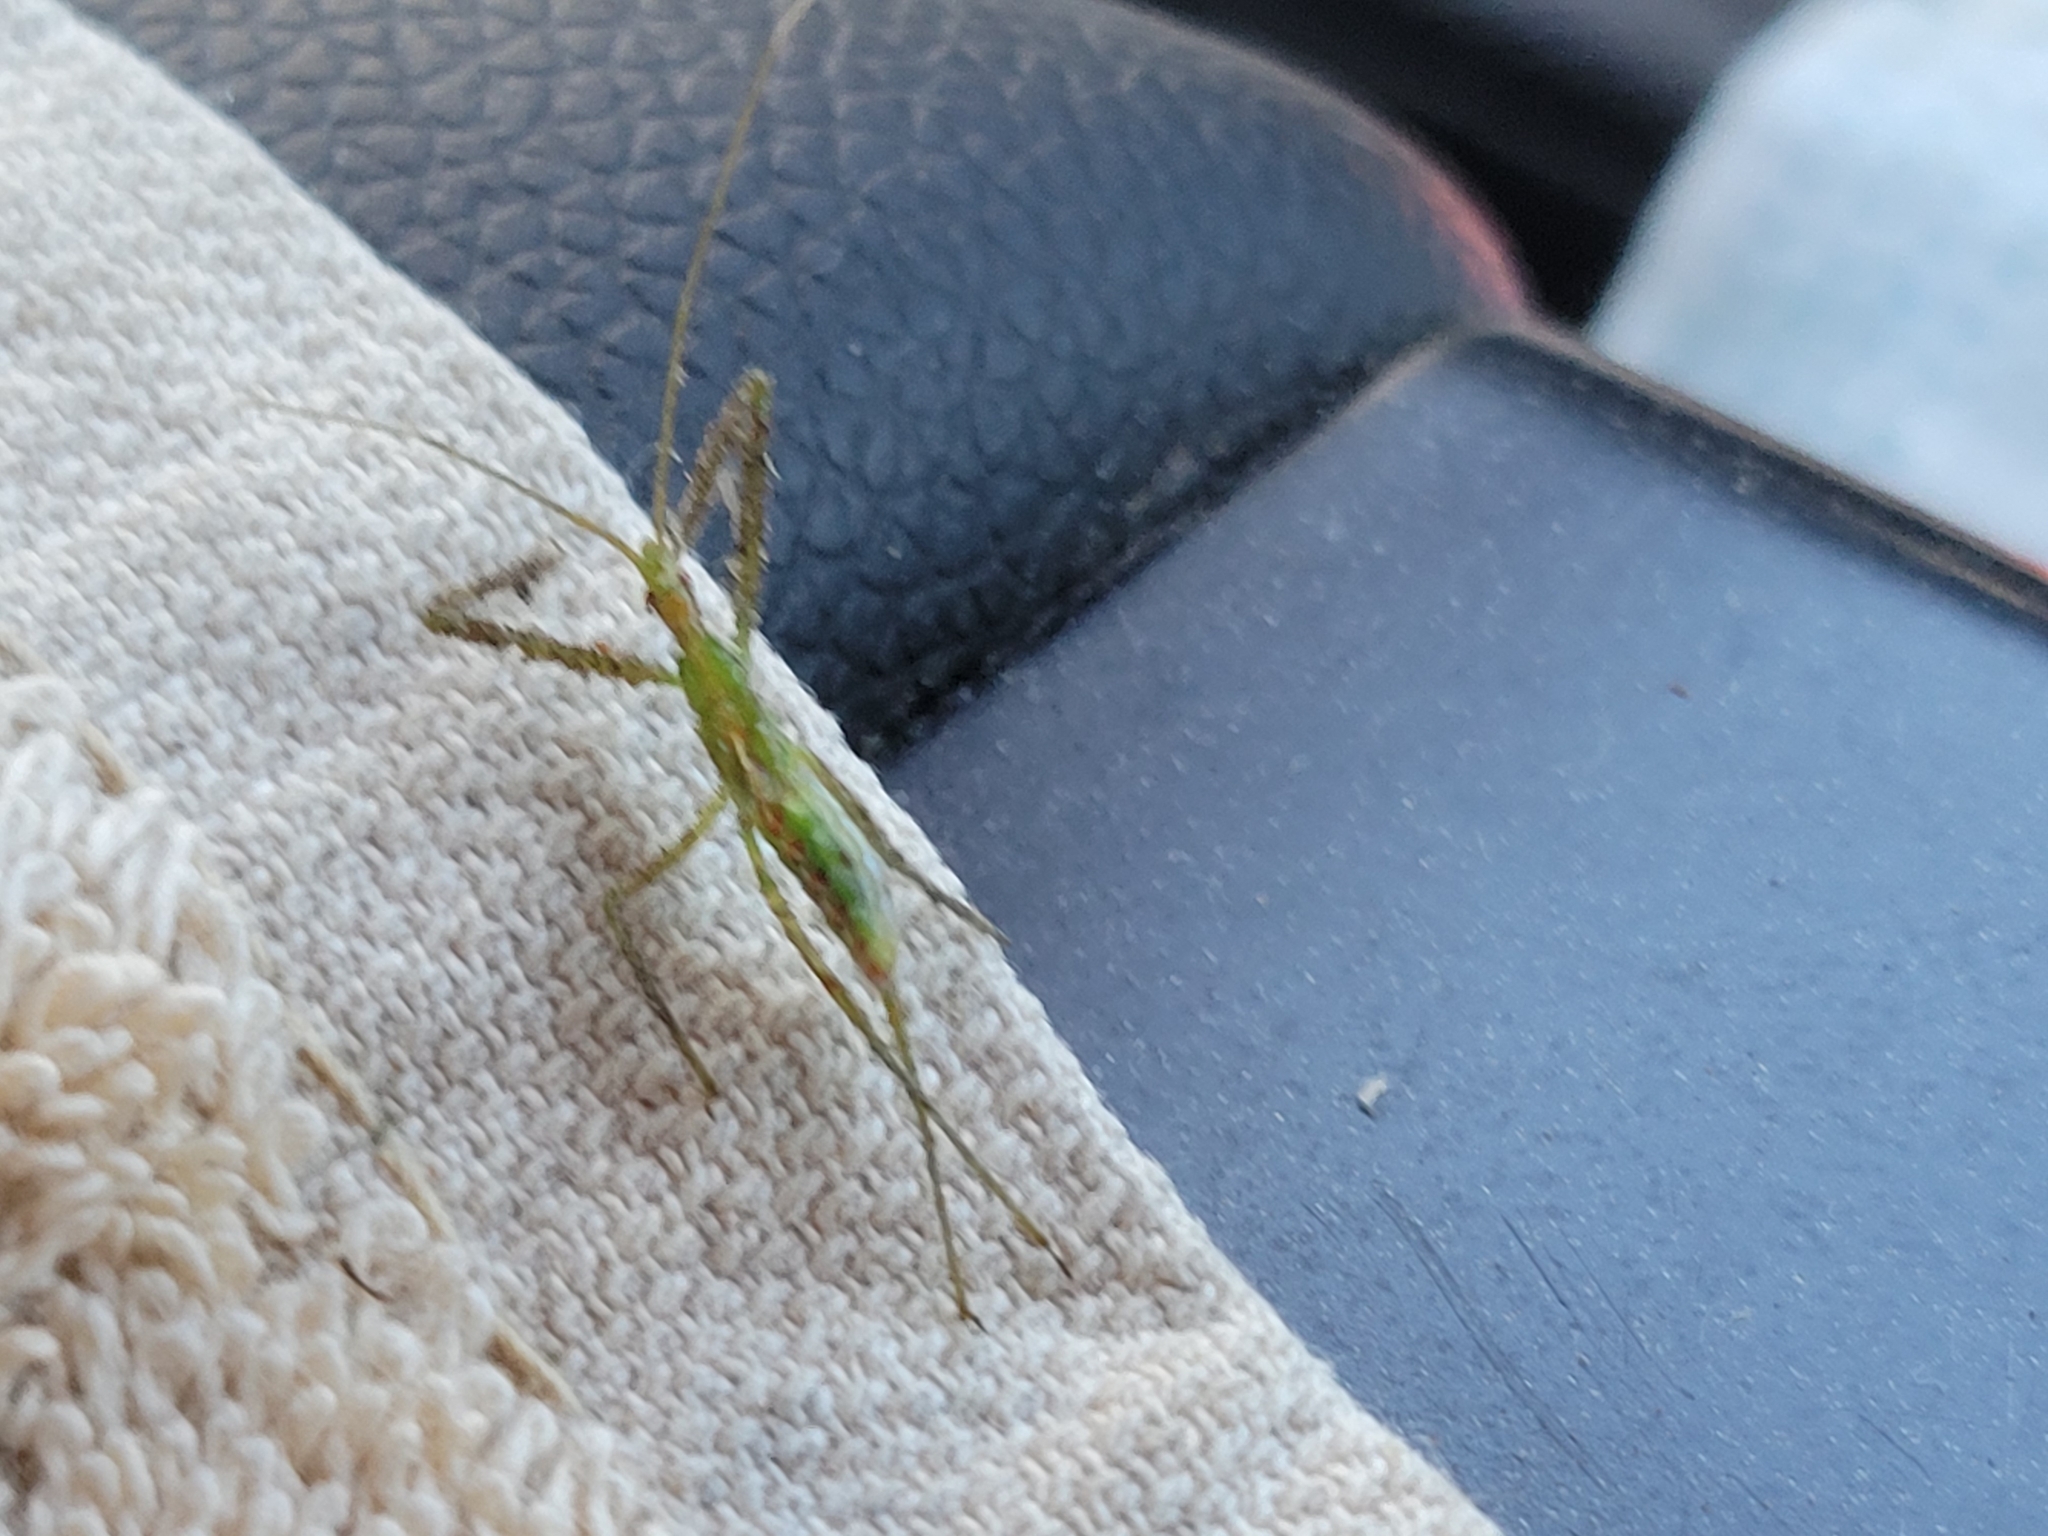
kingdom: Animalia
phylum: Arthropoda
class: Insecta
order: Hemiptera
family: Reduviidae
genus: Zelus
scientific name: Zelus luridus
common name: Pale green assassin bug
